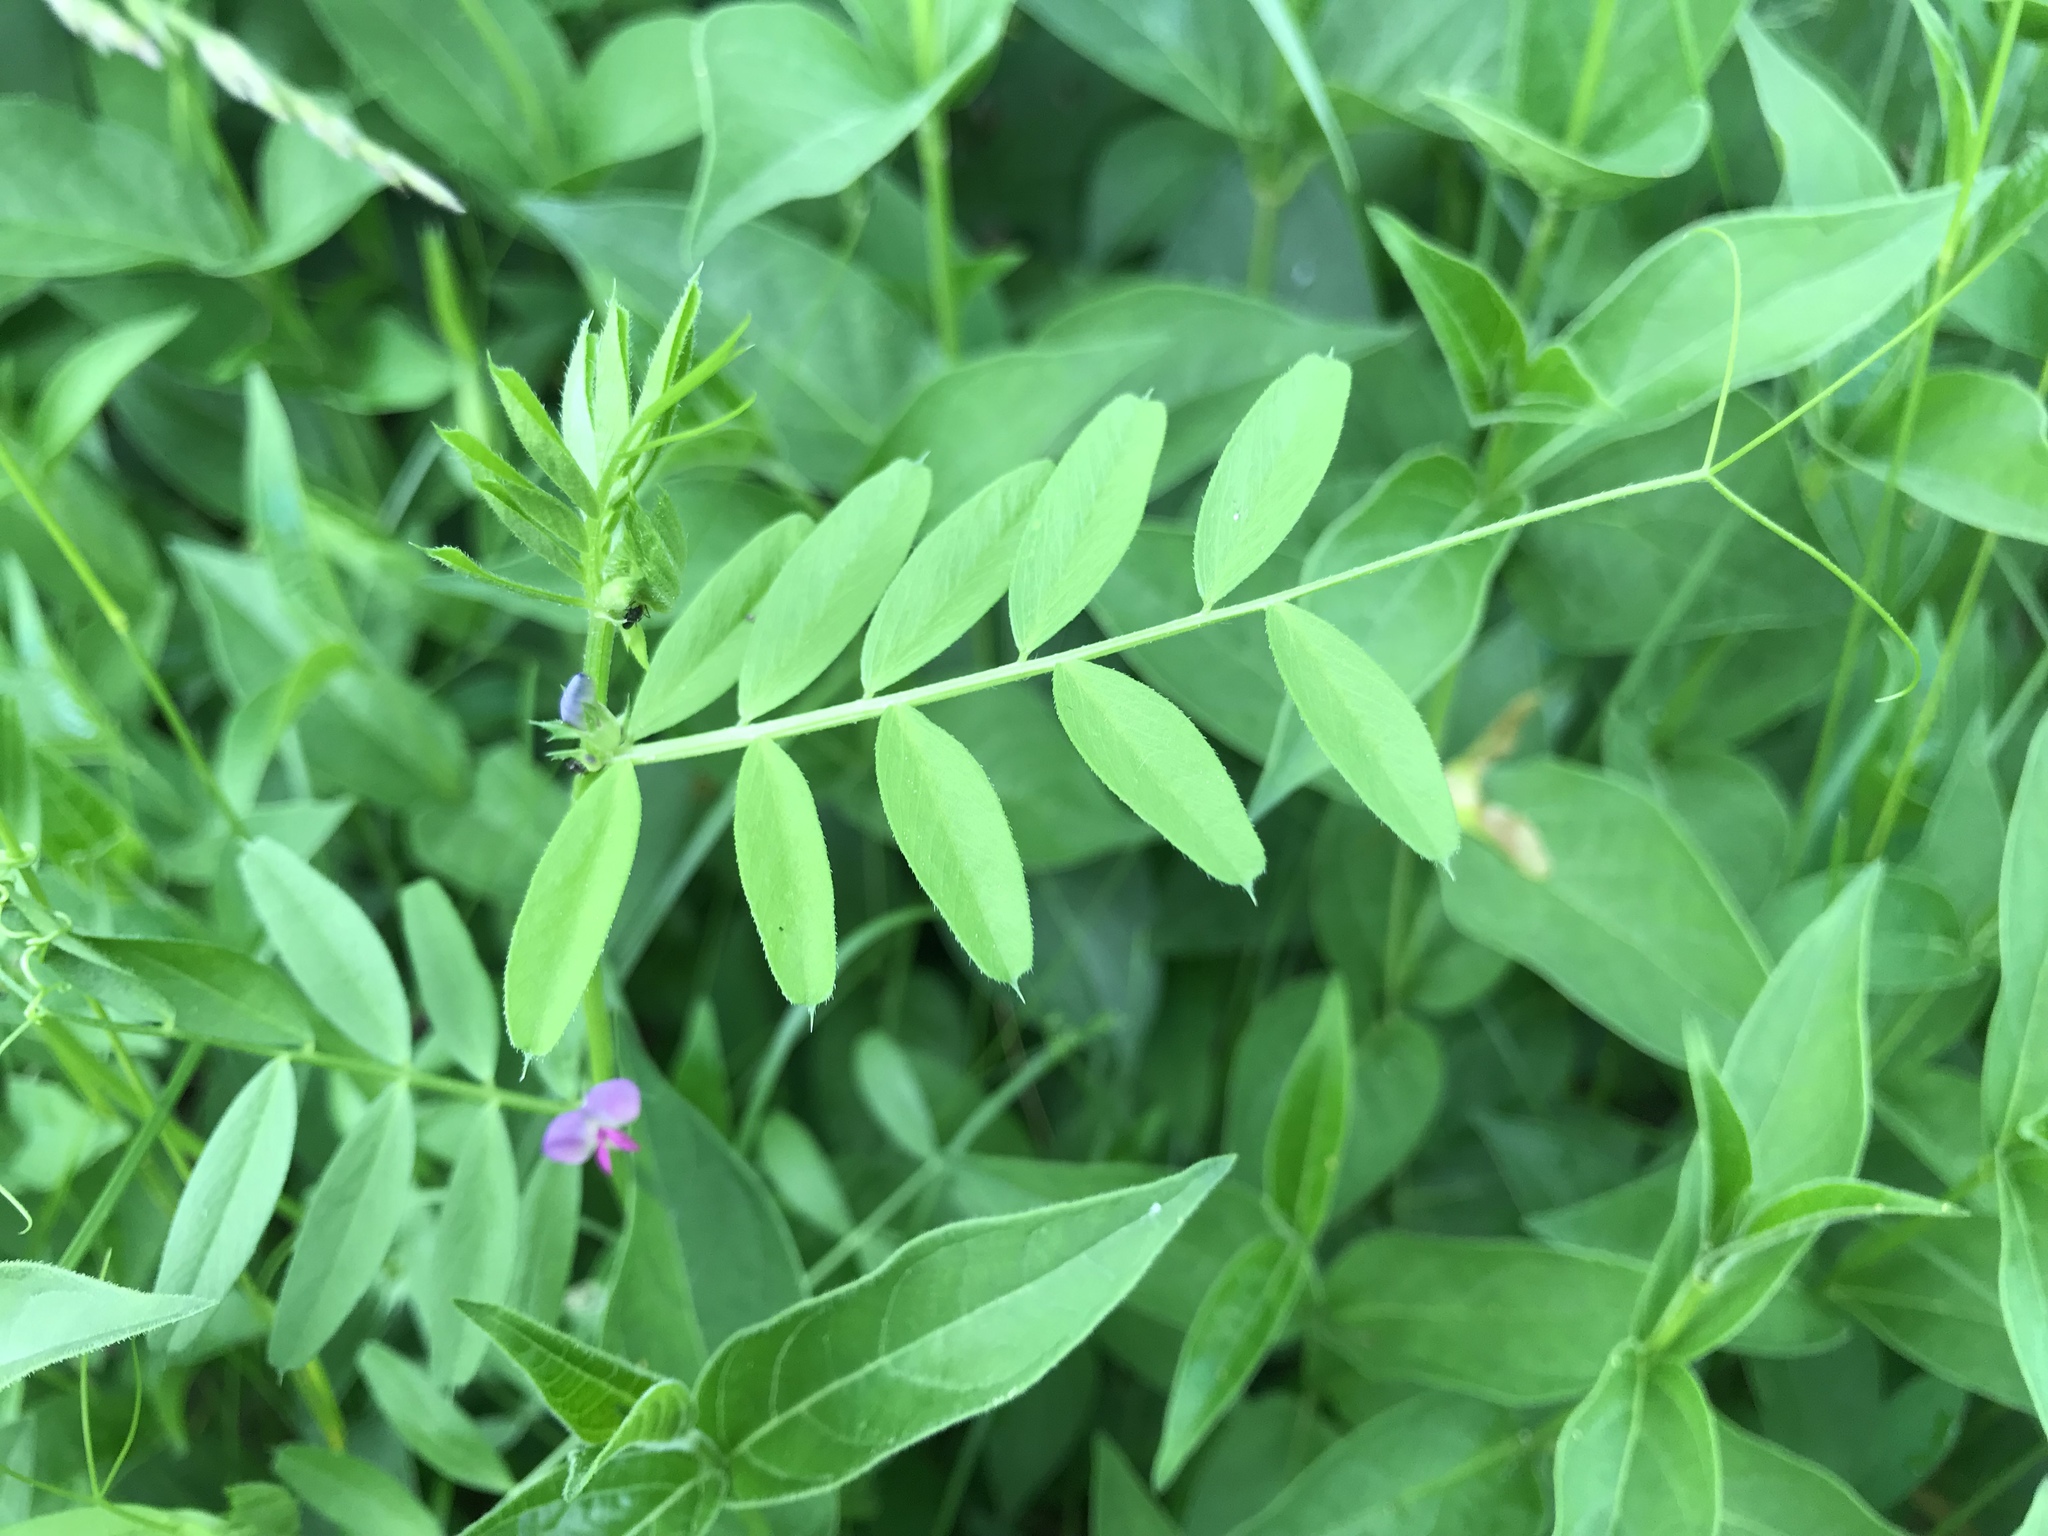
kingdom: Plantae
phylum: Tracheophyta
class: Magnoliopsida
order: Fabales
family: Fabaceae
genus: Vicia
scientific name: Vicia sativa
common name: Garden vetch
